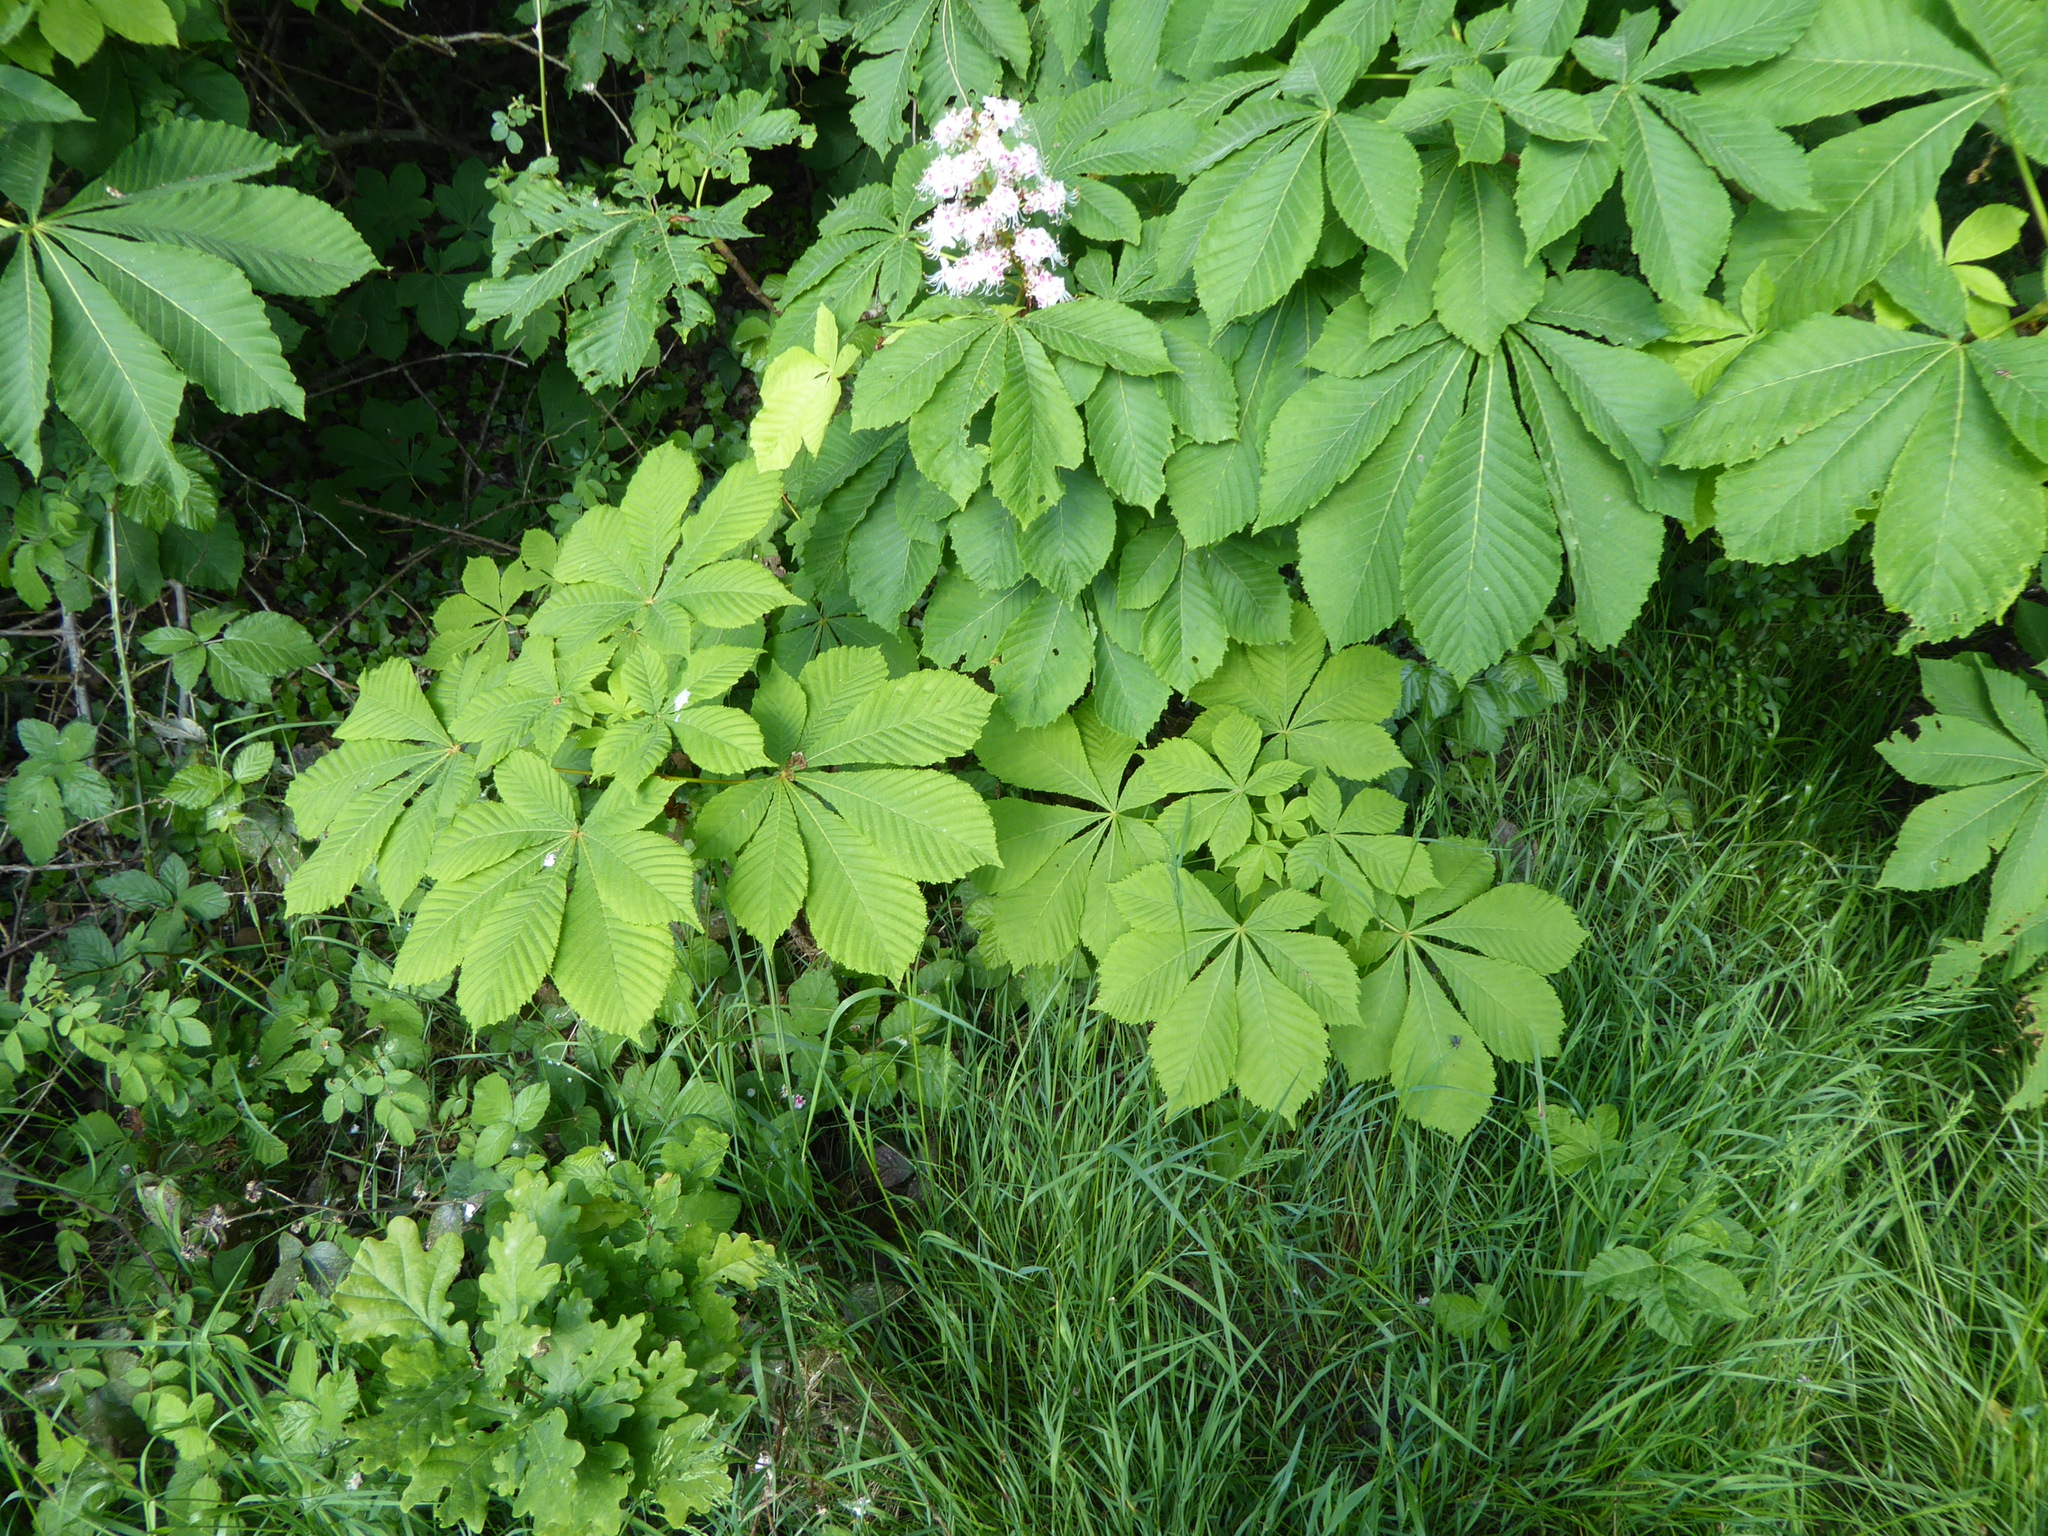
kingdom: Plantae
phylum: Tracheophyta
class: Magnoliopsida
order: Sapindales
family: Sapindaceae
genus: Aesculus
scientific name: Aesculus hippocastanum
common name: Horse-chestnut
